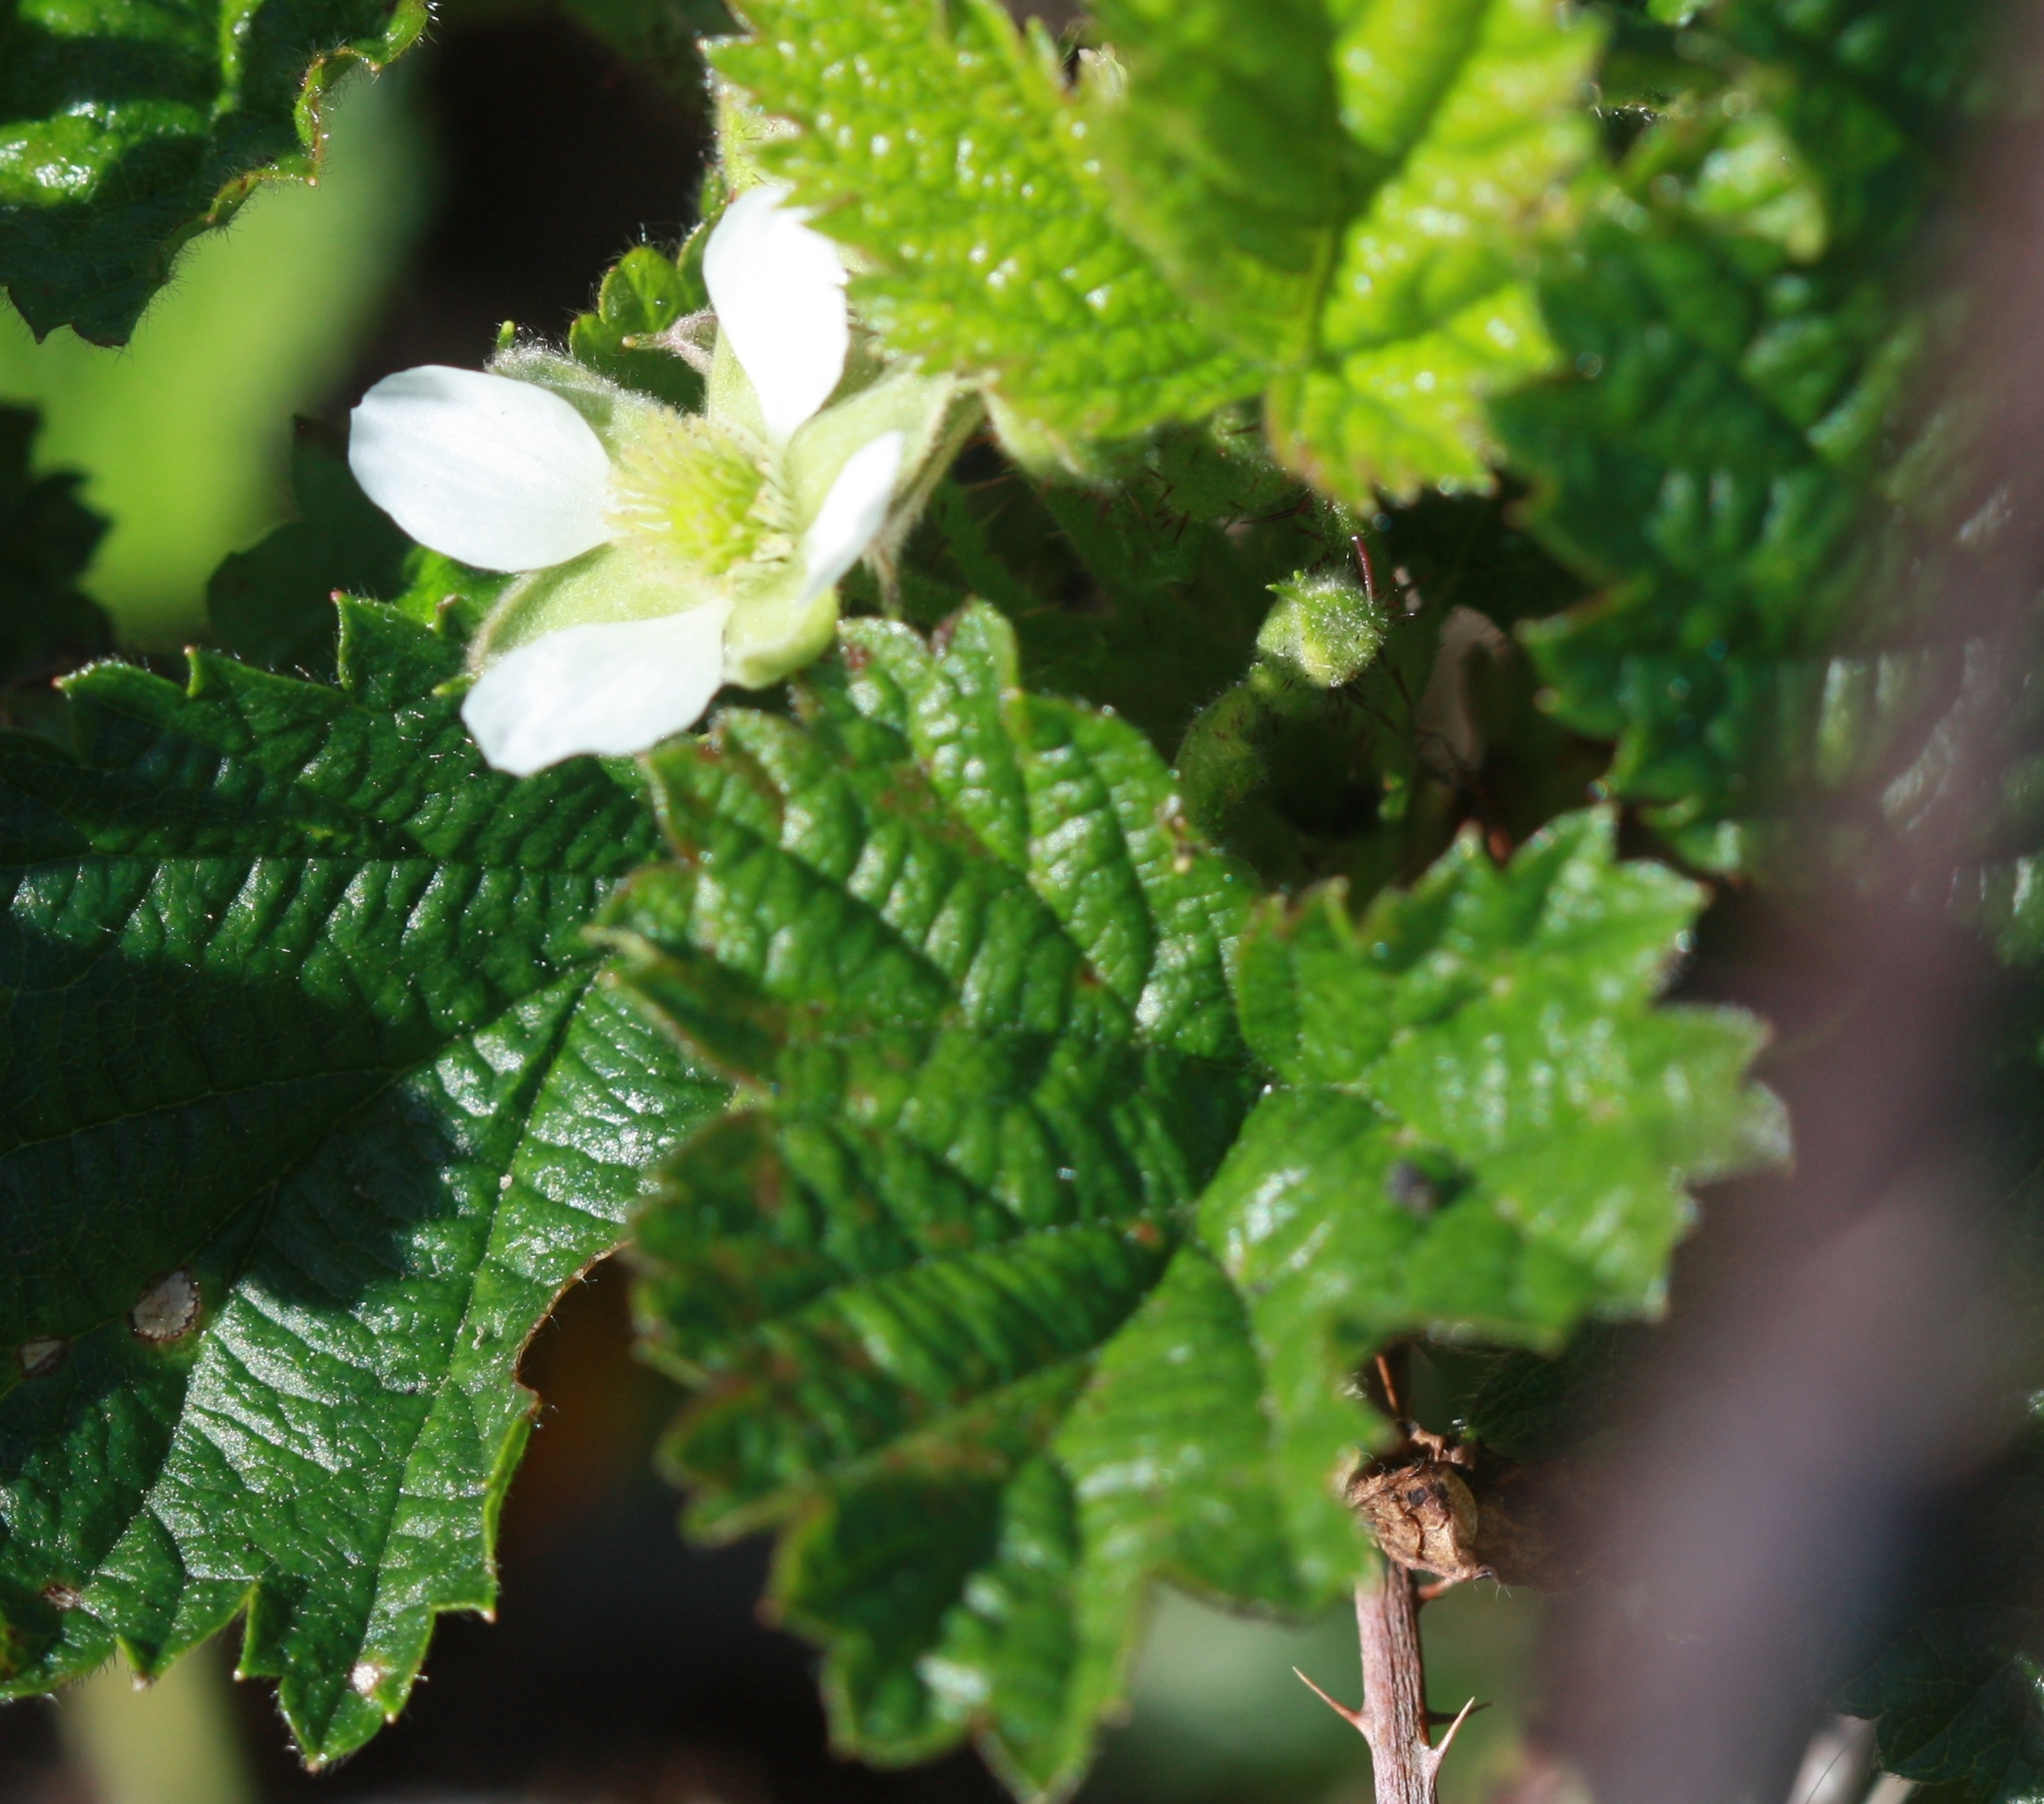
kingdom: Plantae
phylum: Tracheophyta
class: Magnoliopsida
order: Rosales
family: Rosaceae
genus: Rubus
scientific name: Rubus ursinus
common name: Pacific blackberry
